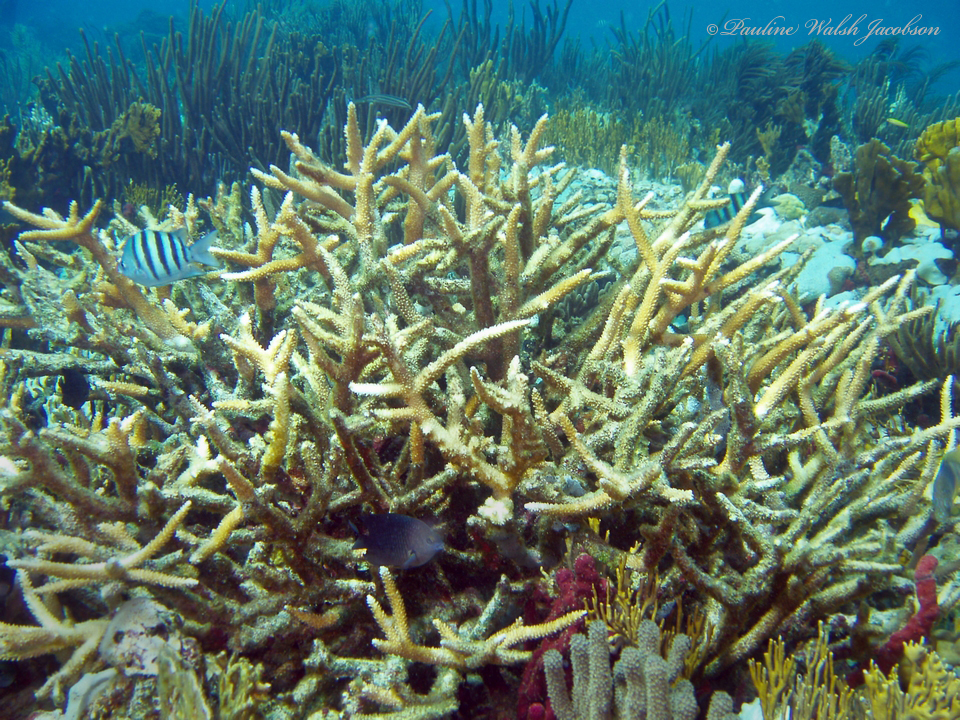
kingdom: Animalia
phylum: Cnidaria
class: Anthozoa
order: Scleractinia
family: Acroporidae
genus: Acropora
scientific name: Acropora cervicornis
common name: Staghorn coral
